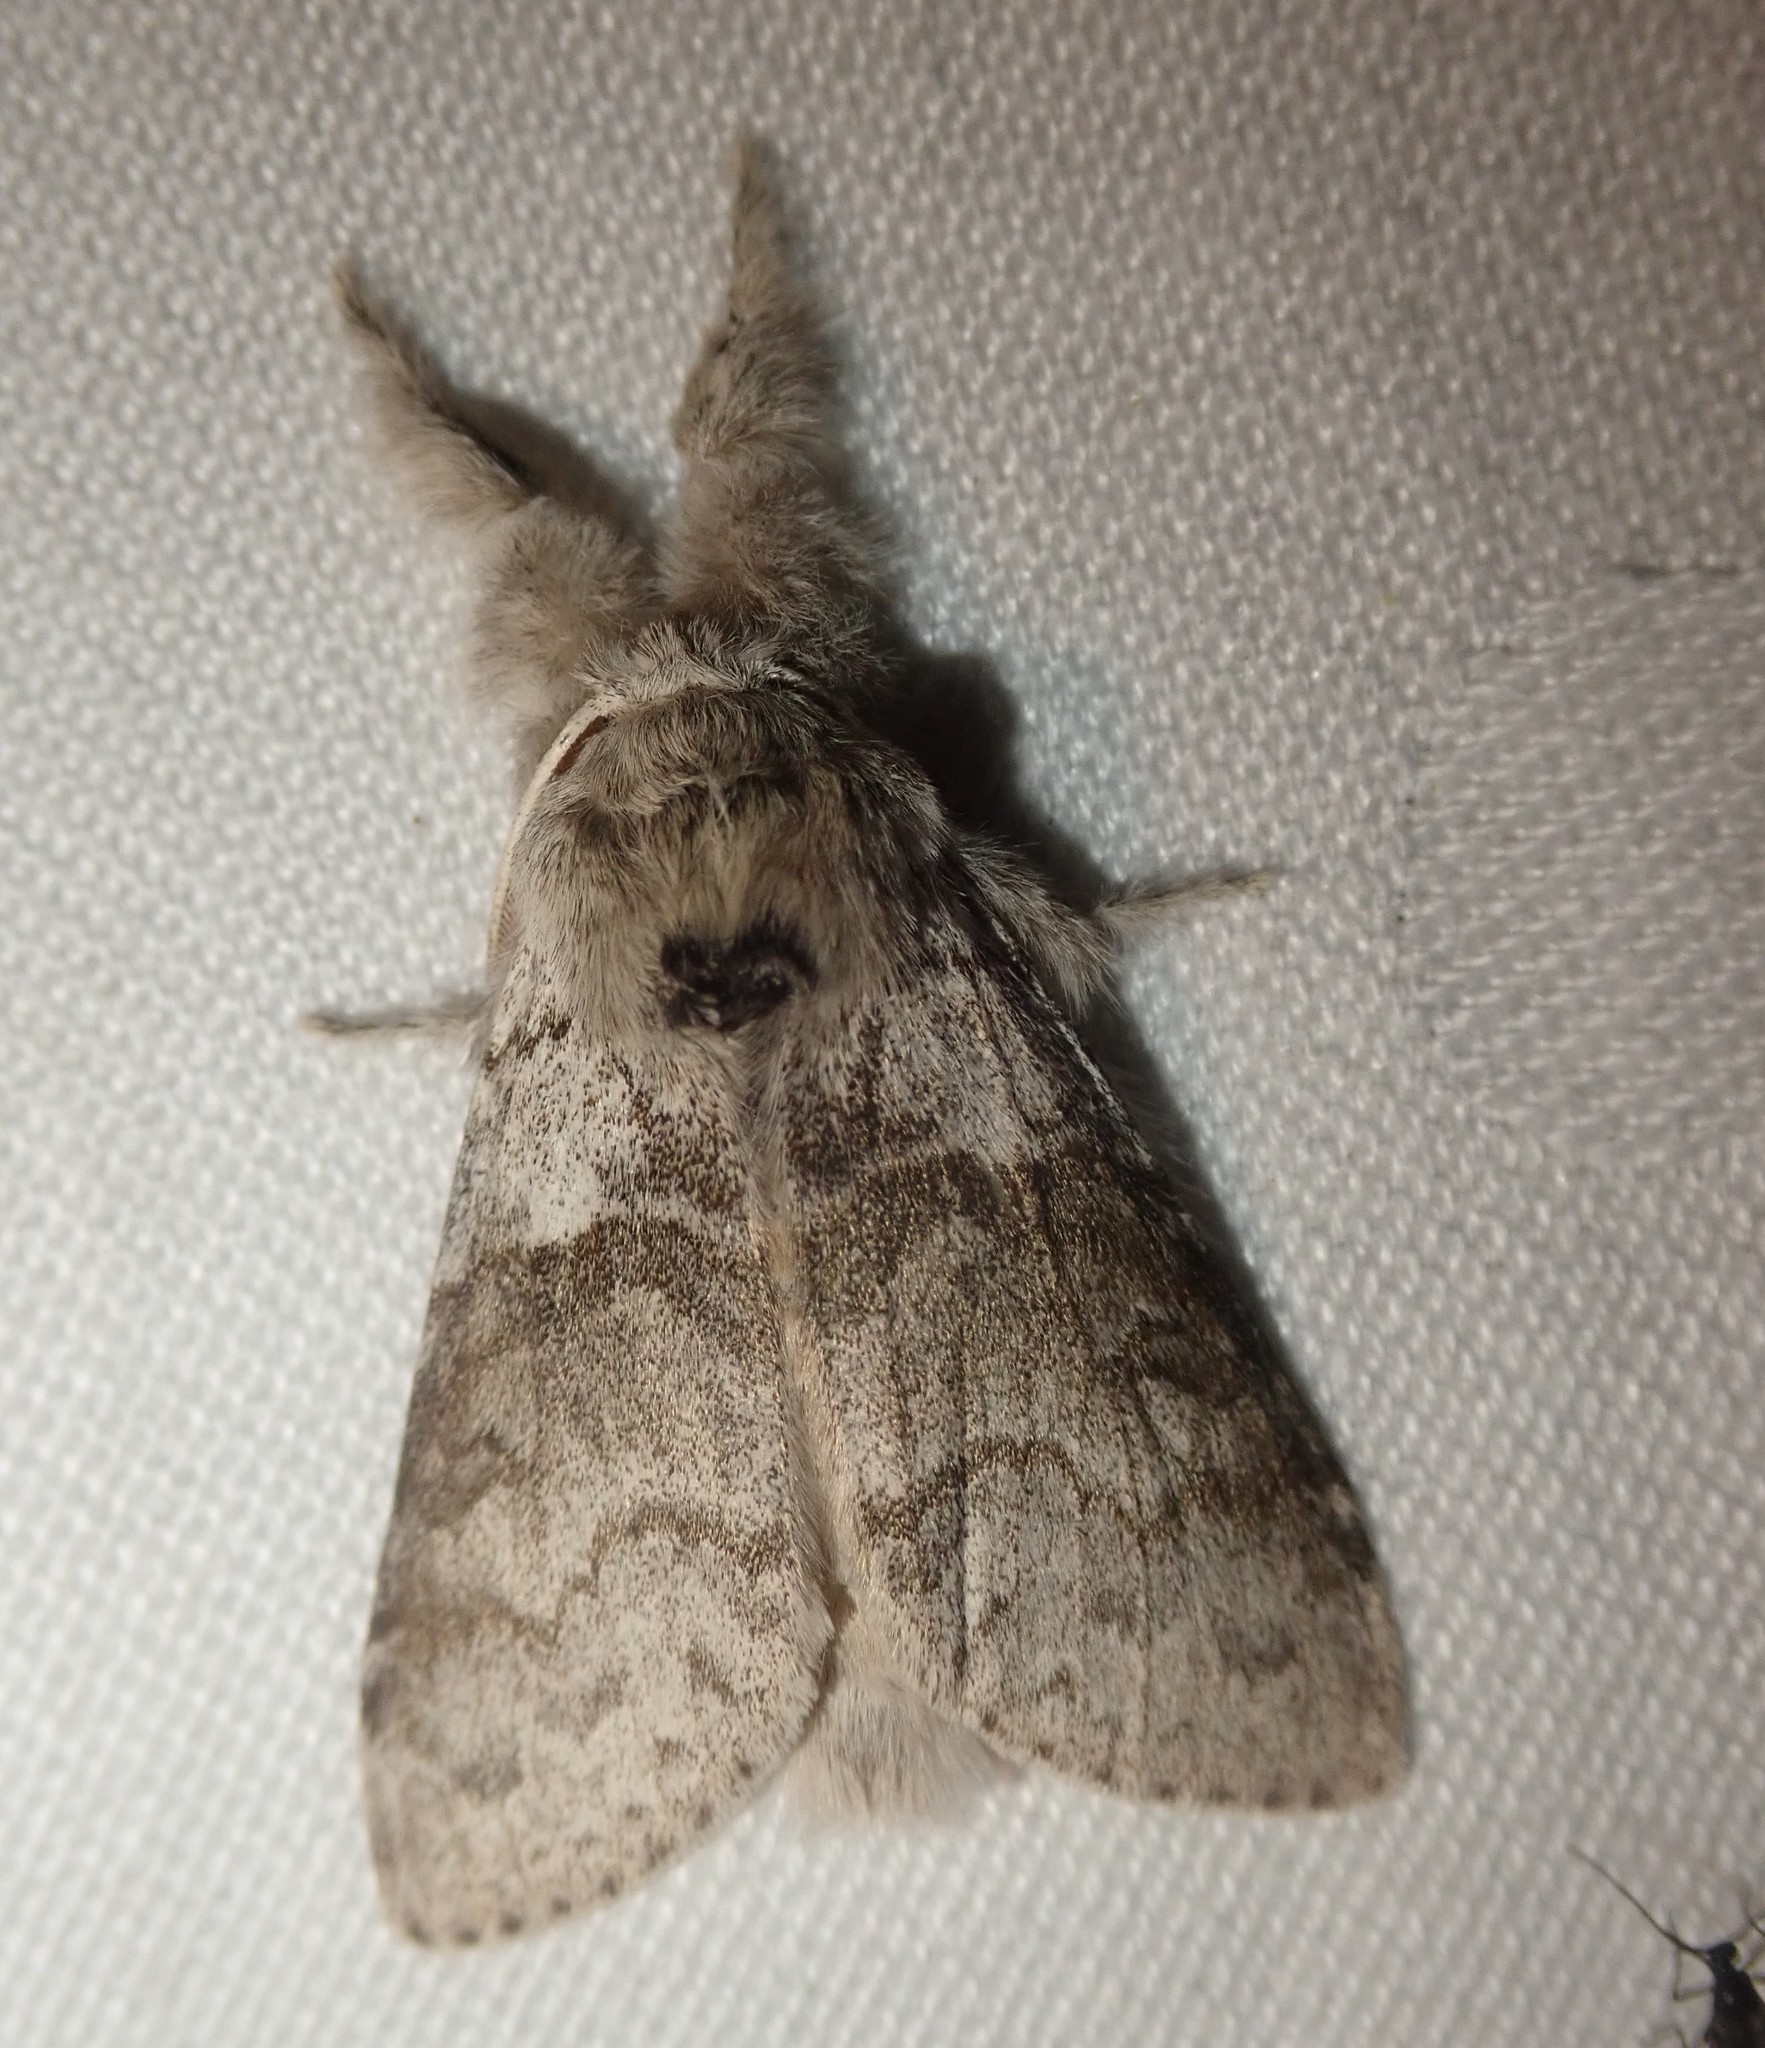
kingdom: Animalia
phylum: Arthropoda
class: Insecta
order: Lepidoptera
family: Erebidae
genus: Calliteara
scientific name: Calliteara pudibunda
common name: Pale tussock
